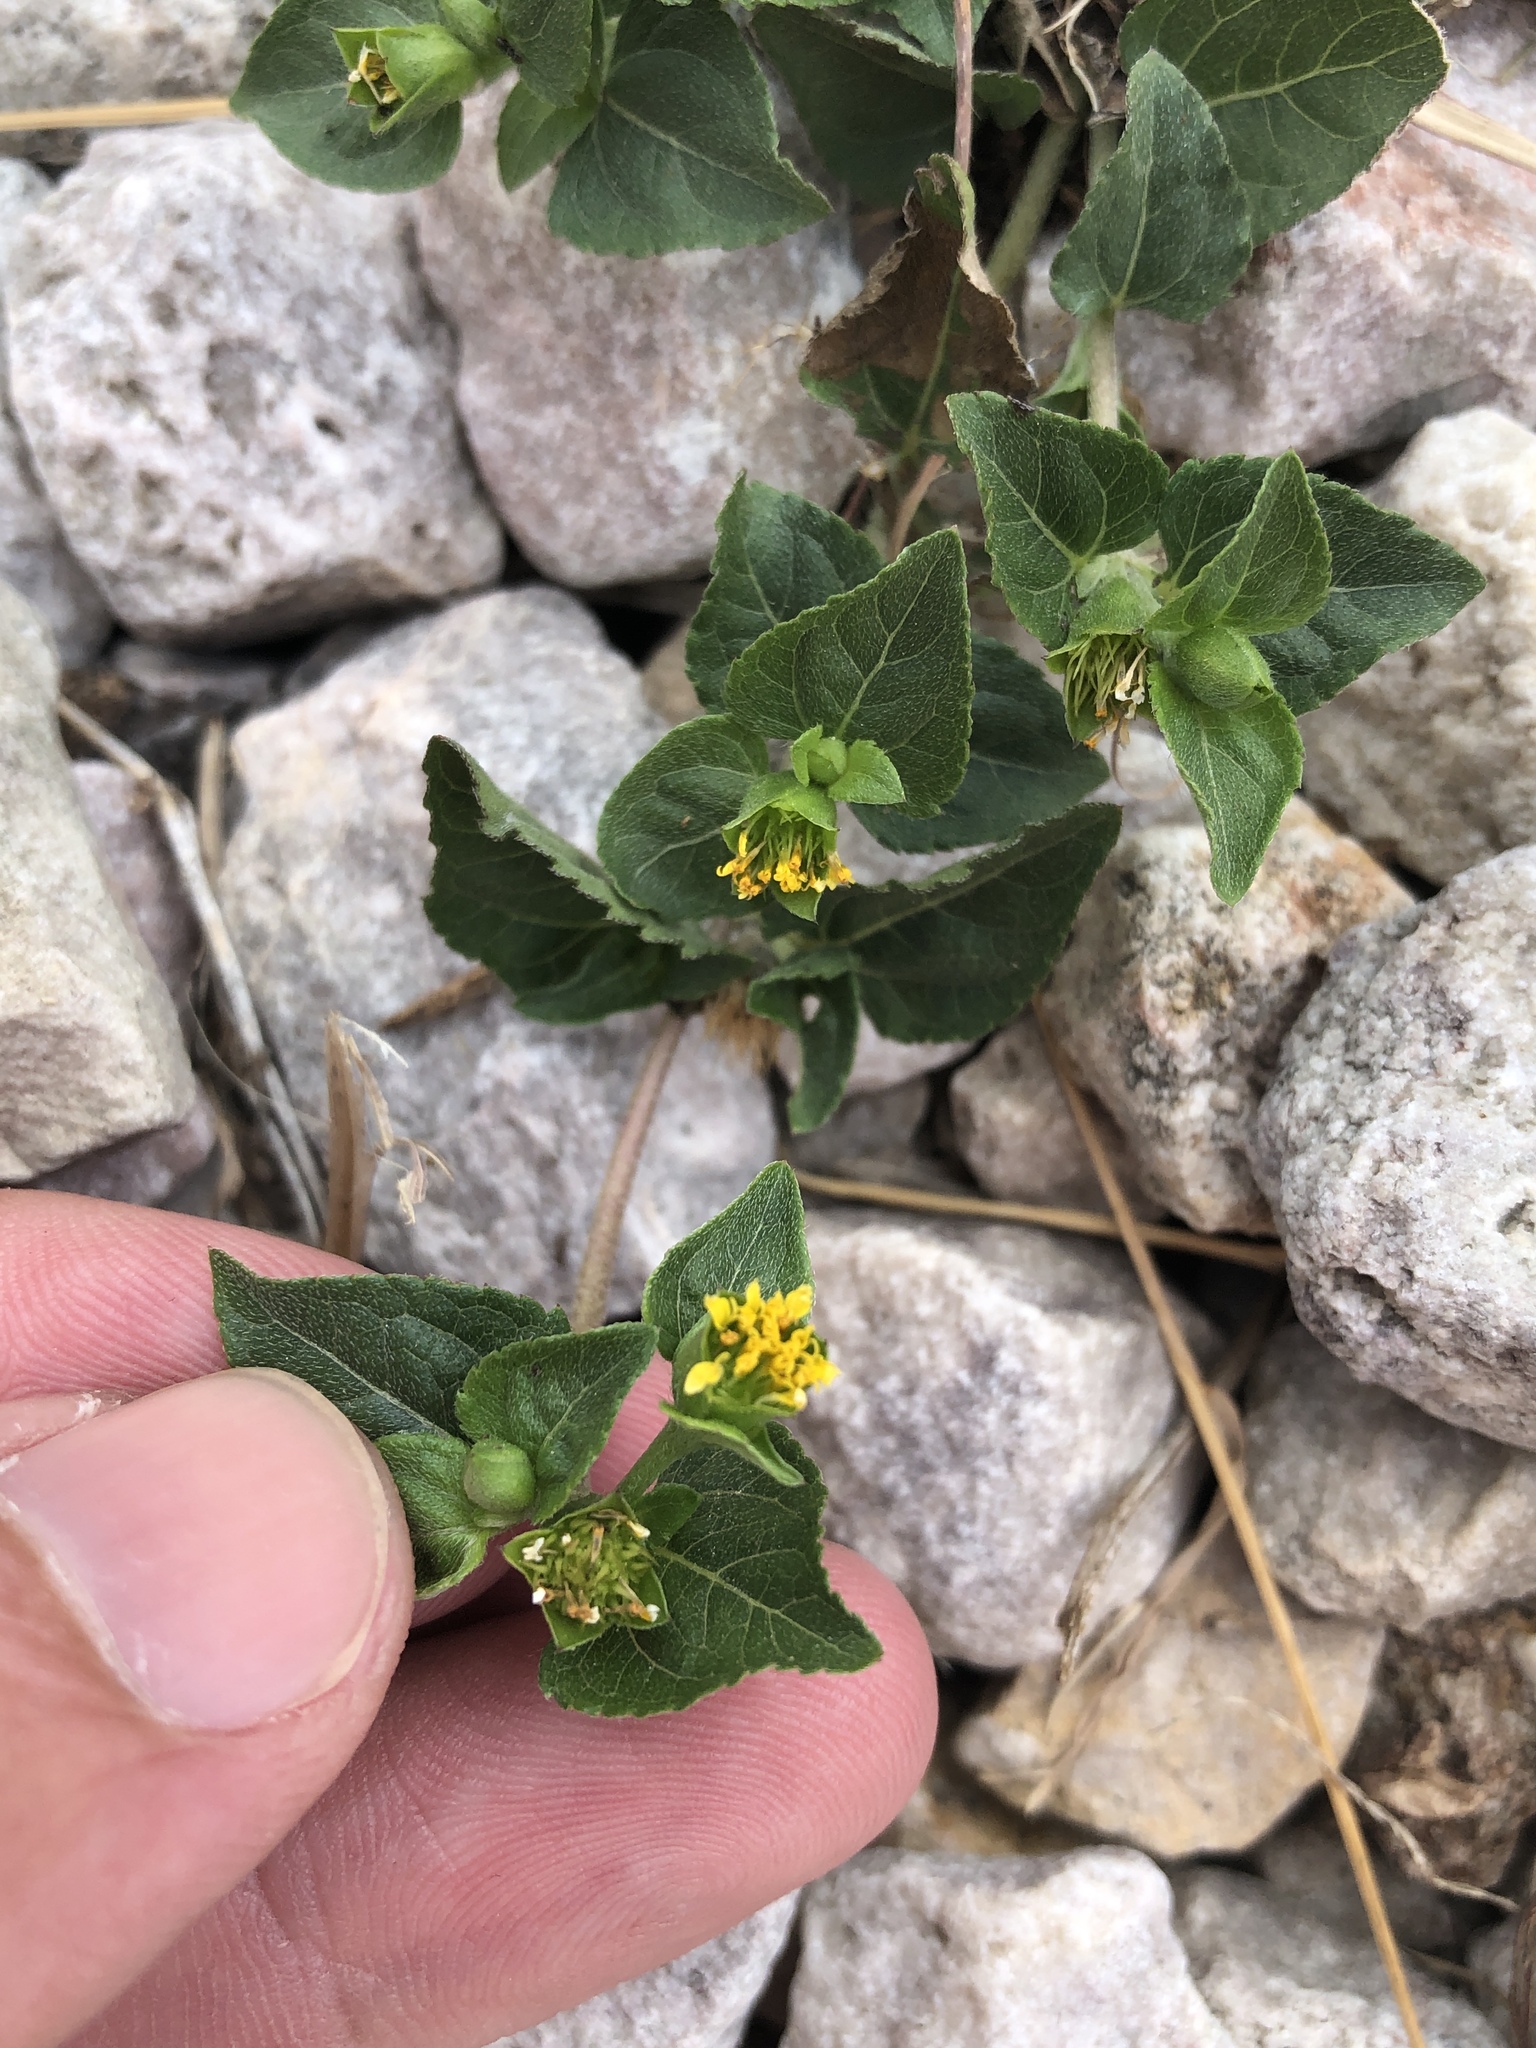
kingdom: Plantae
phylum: Tracheophyta
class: Magnoliopsida
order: Asterales
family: Asteraceae
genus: Calyptocarpus
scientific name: Calyptocarpus vialis
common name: Straggler daisy
